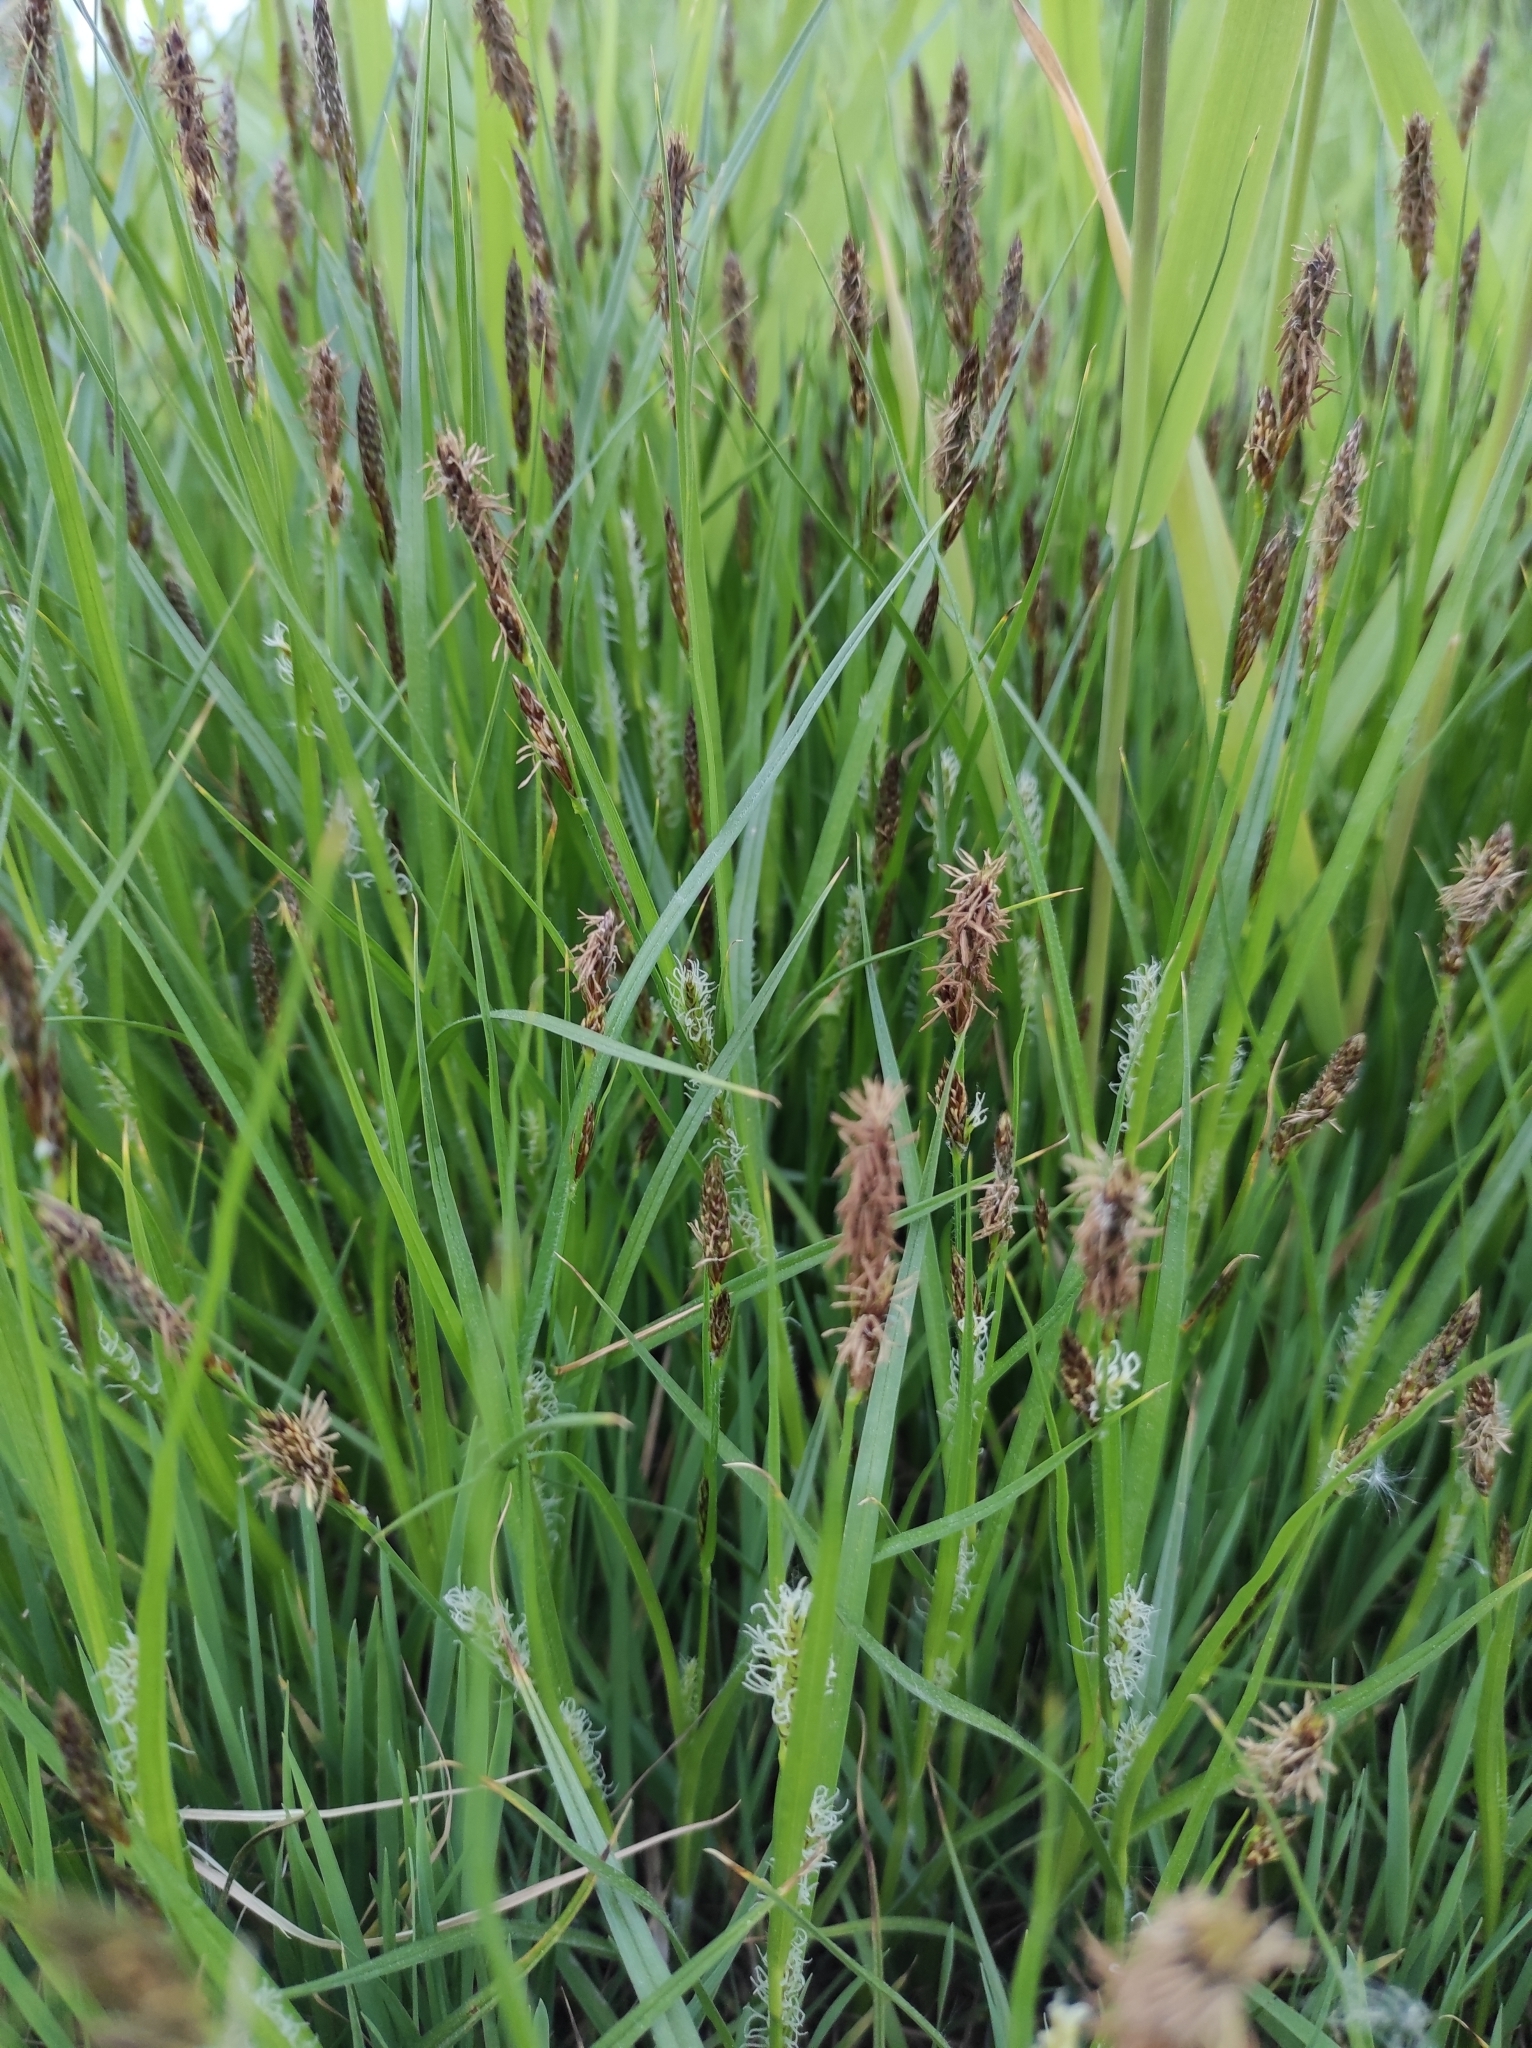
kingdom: Plantae
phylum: Tracheophyta
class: Liliopsida
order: Poales
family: Cyperaceae
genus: Carex
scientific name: Carex hirta
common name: Hairy sedge
